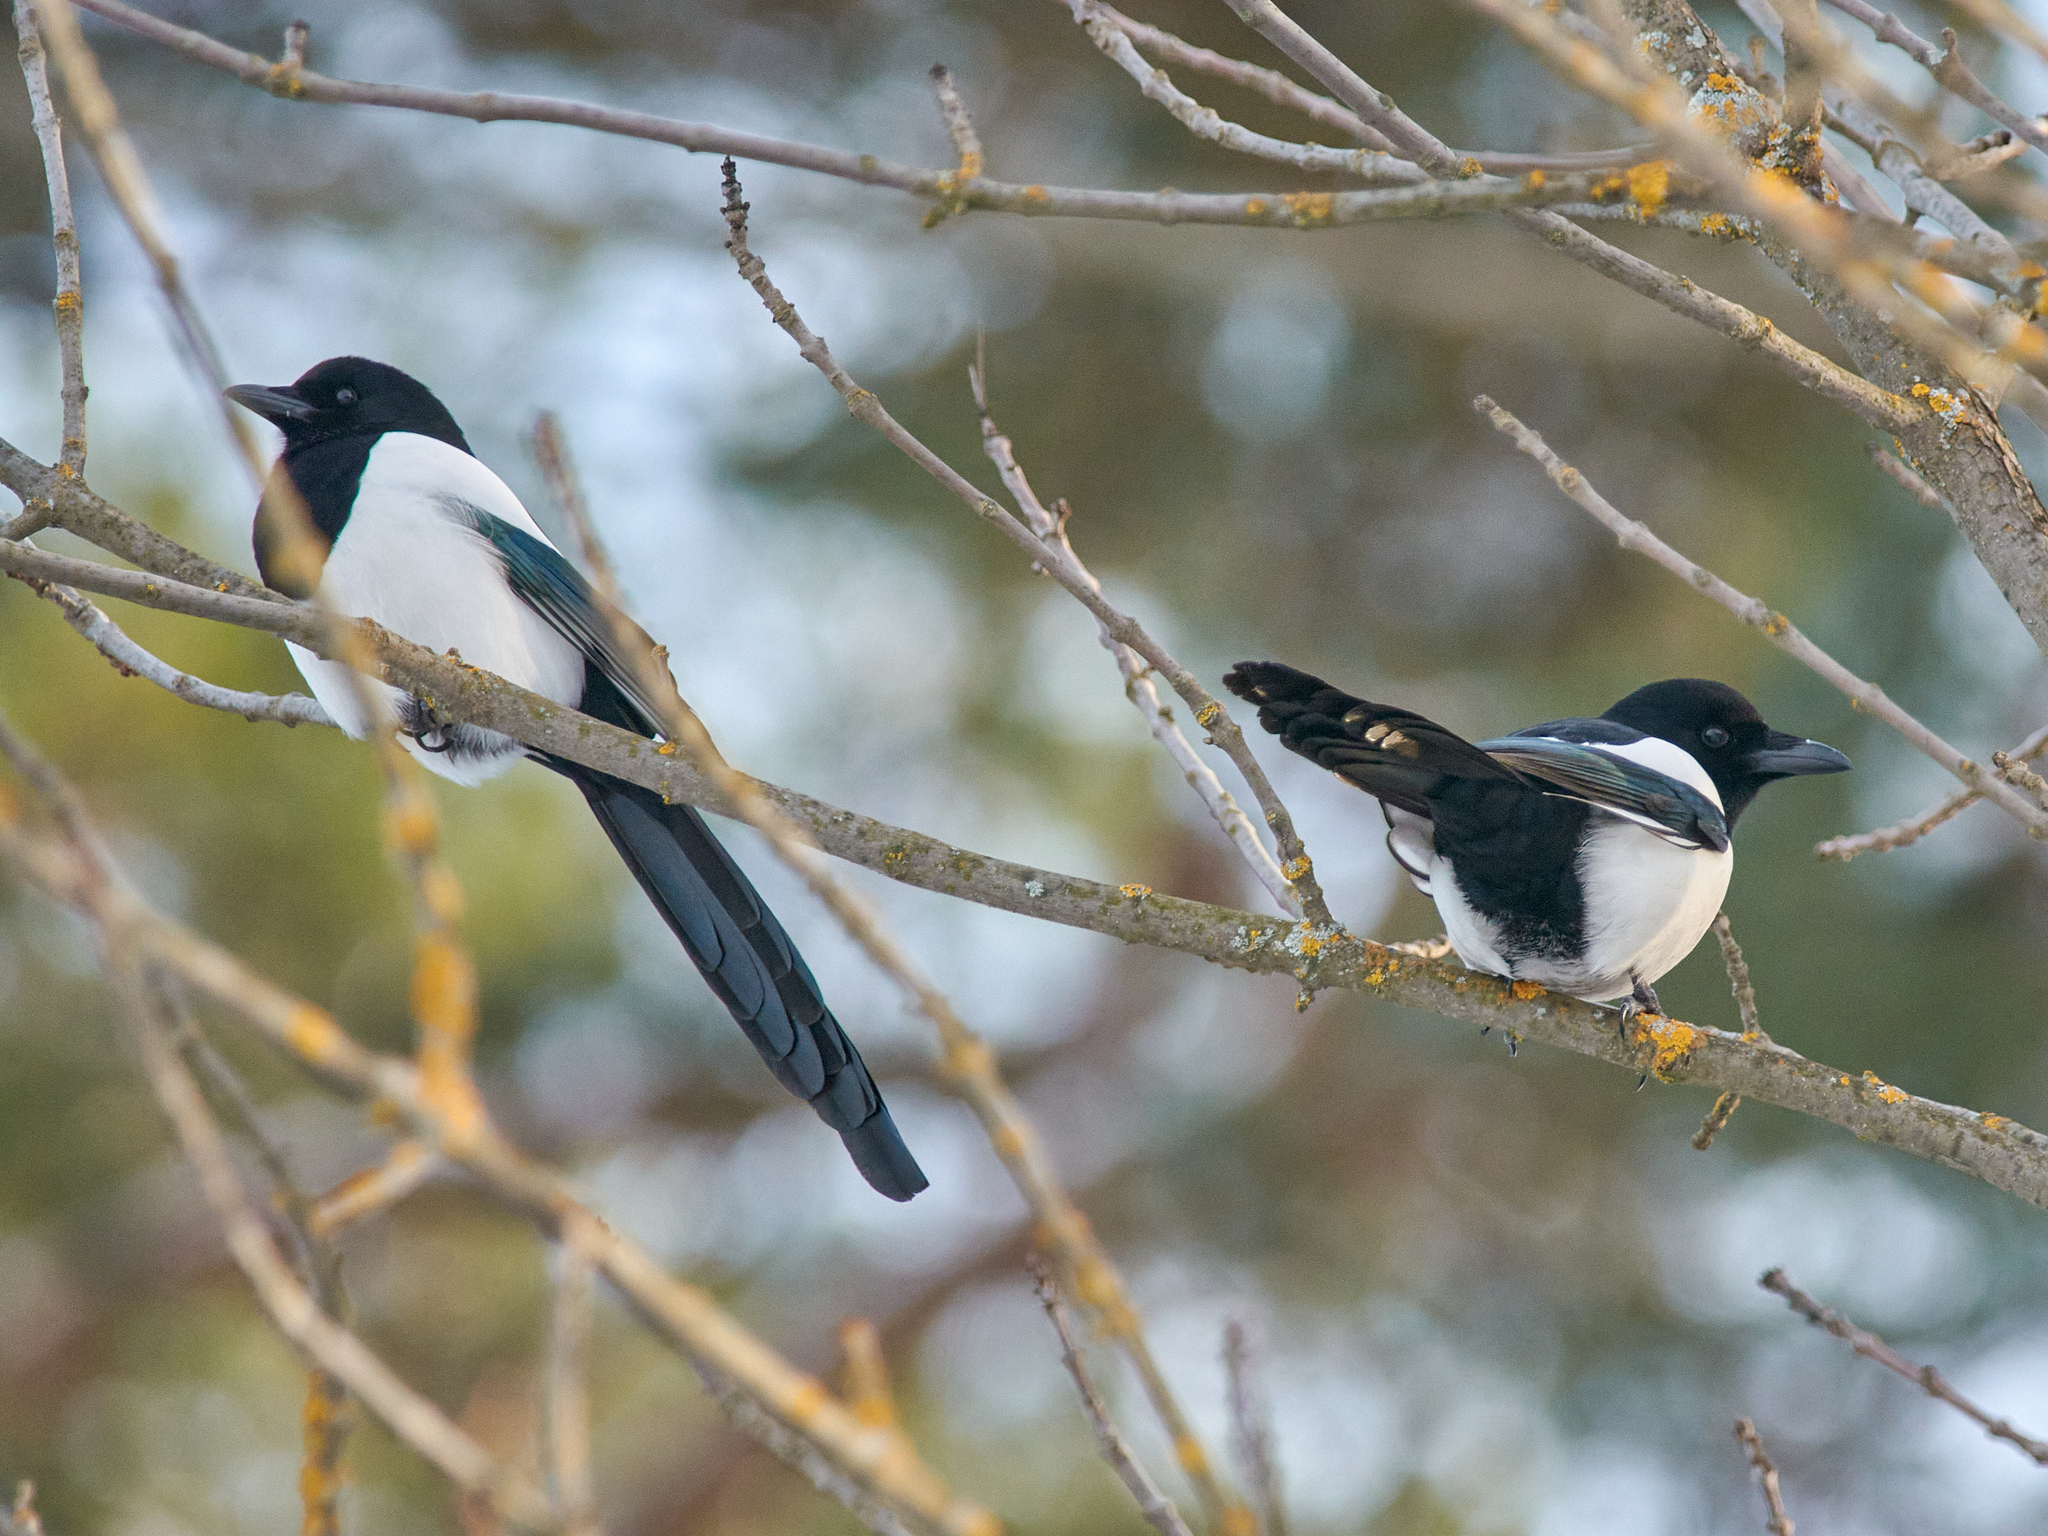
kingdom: Animalia
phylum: Chordata
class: Aves
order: Passeriformes
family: Corvidae
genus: Pica
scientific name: Pica pica
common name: Eurasian magpie
